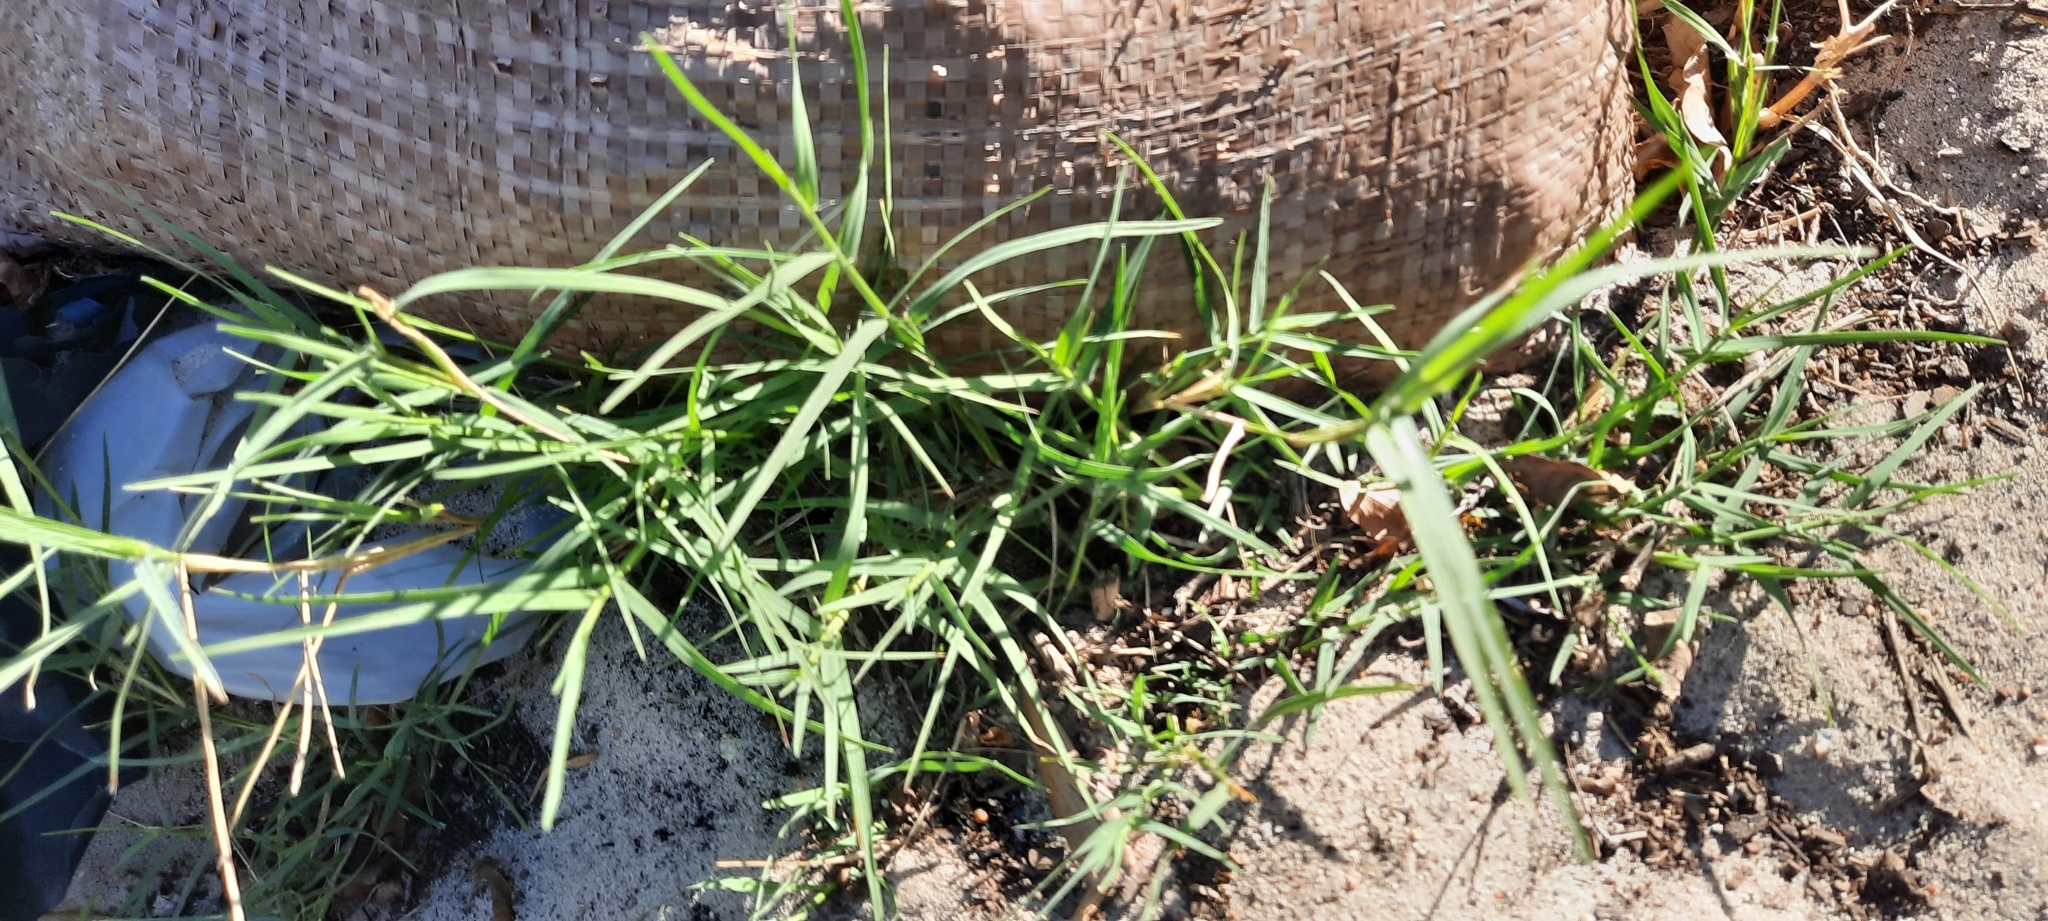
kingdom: Plantae
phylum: Tracheophyta
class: Liliopsida
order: Poales
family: Poaceae
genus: Cynodon
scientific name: Cynodon dactylon
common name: Bermuda grass
